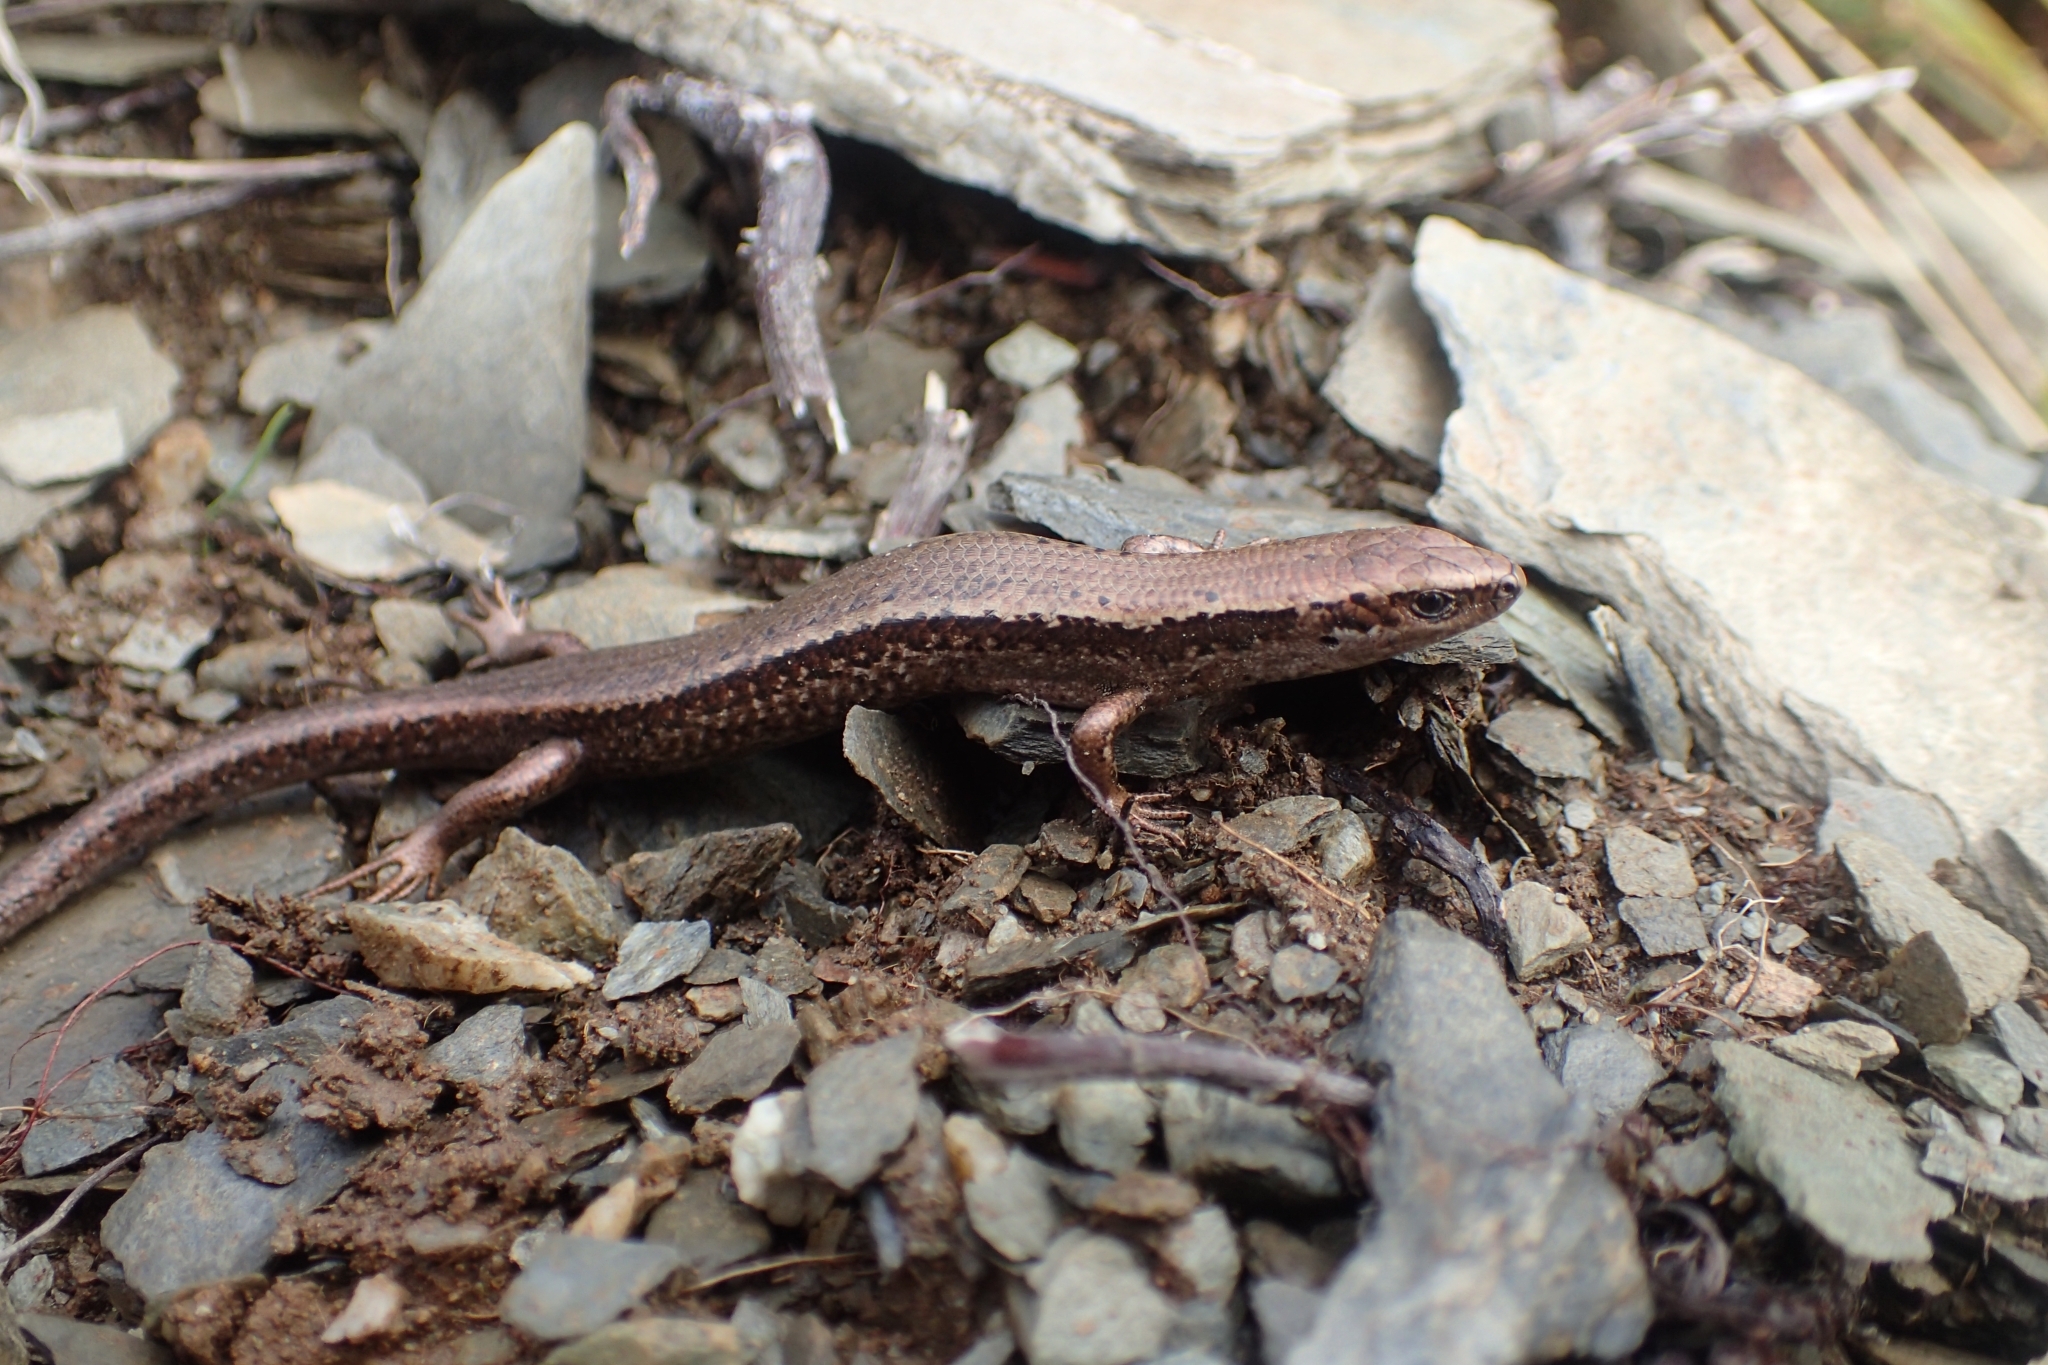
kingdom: Animalia
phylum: Chordata
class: Squamata
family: Scincidae
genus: Oligosoma
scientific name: Oligosoma inconspicuum
